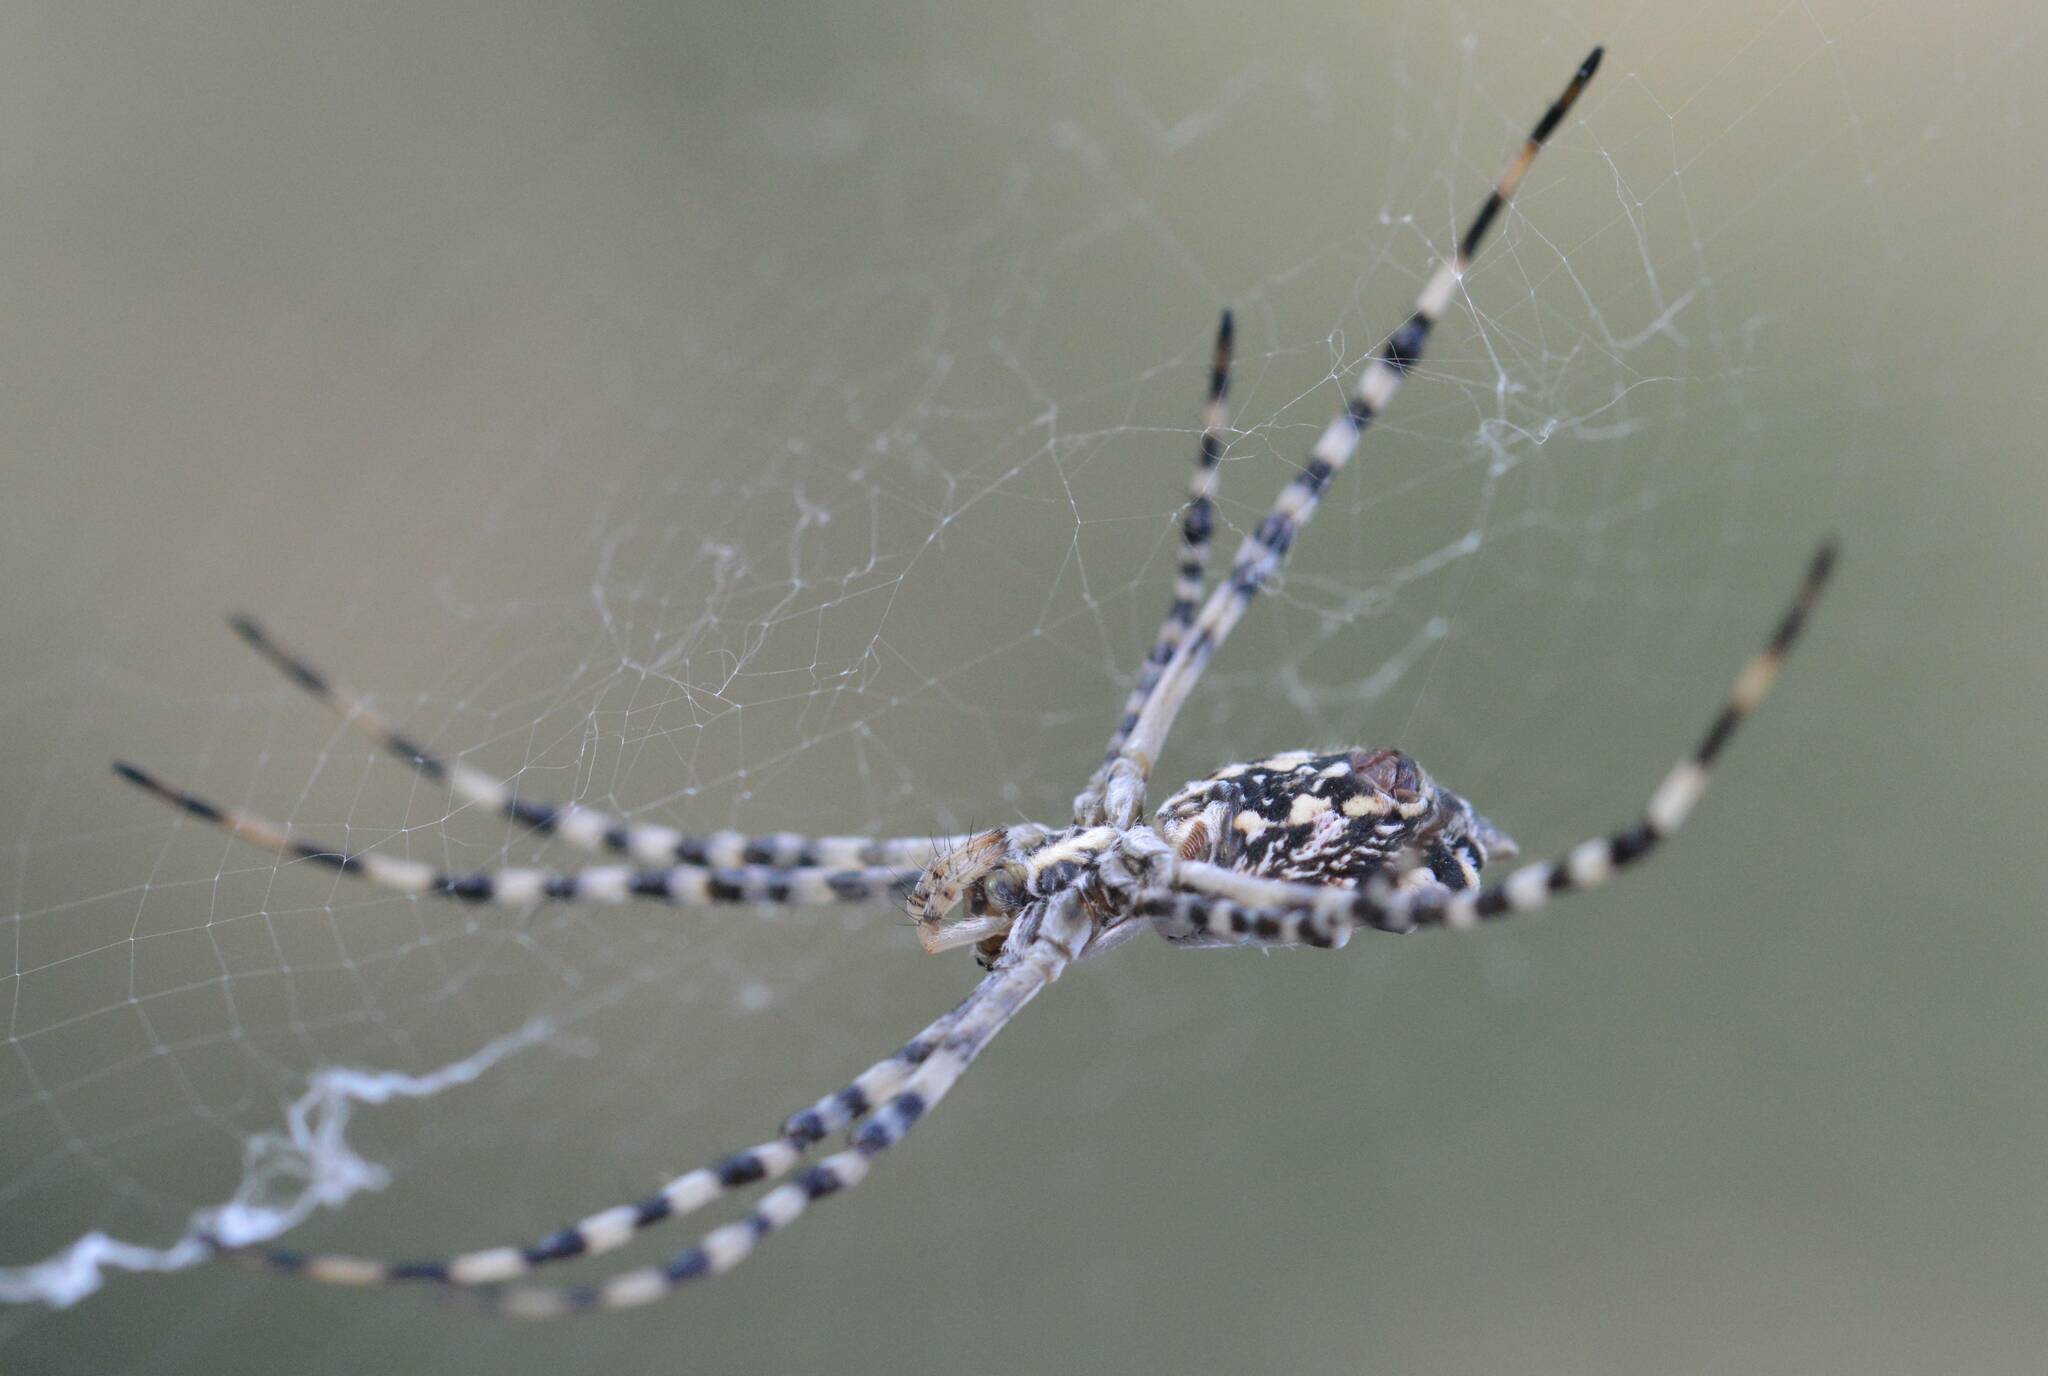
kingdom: Animalia
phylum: Arthropoda
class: Arachnida
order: Araneae
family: Araneidae
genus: Argiope
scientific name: Argiope lobata
